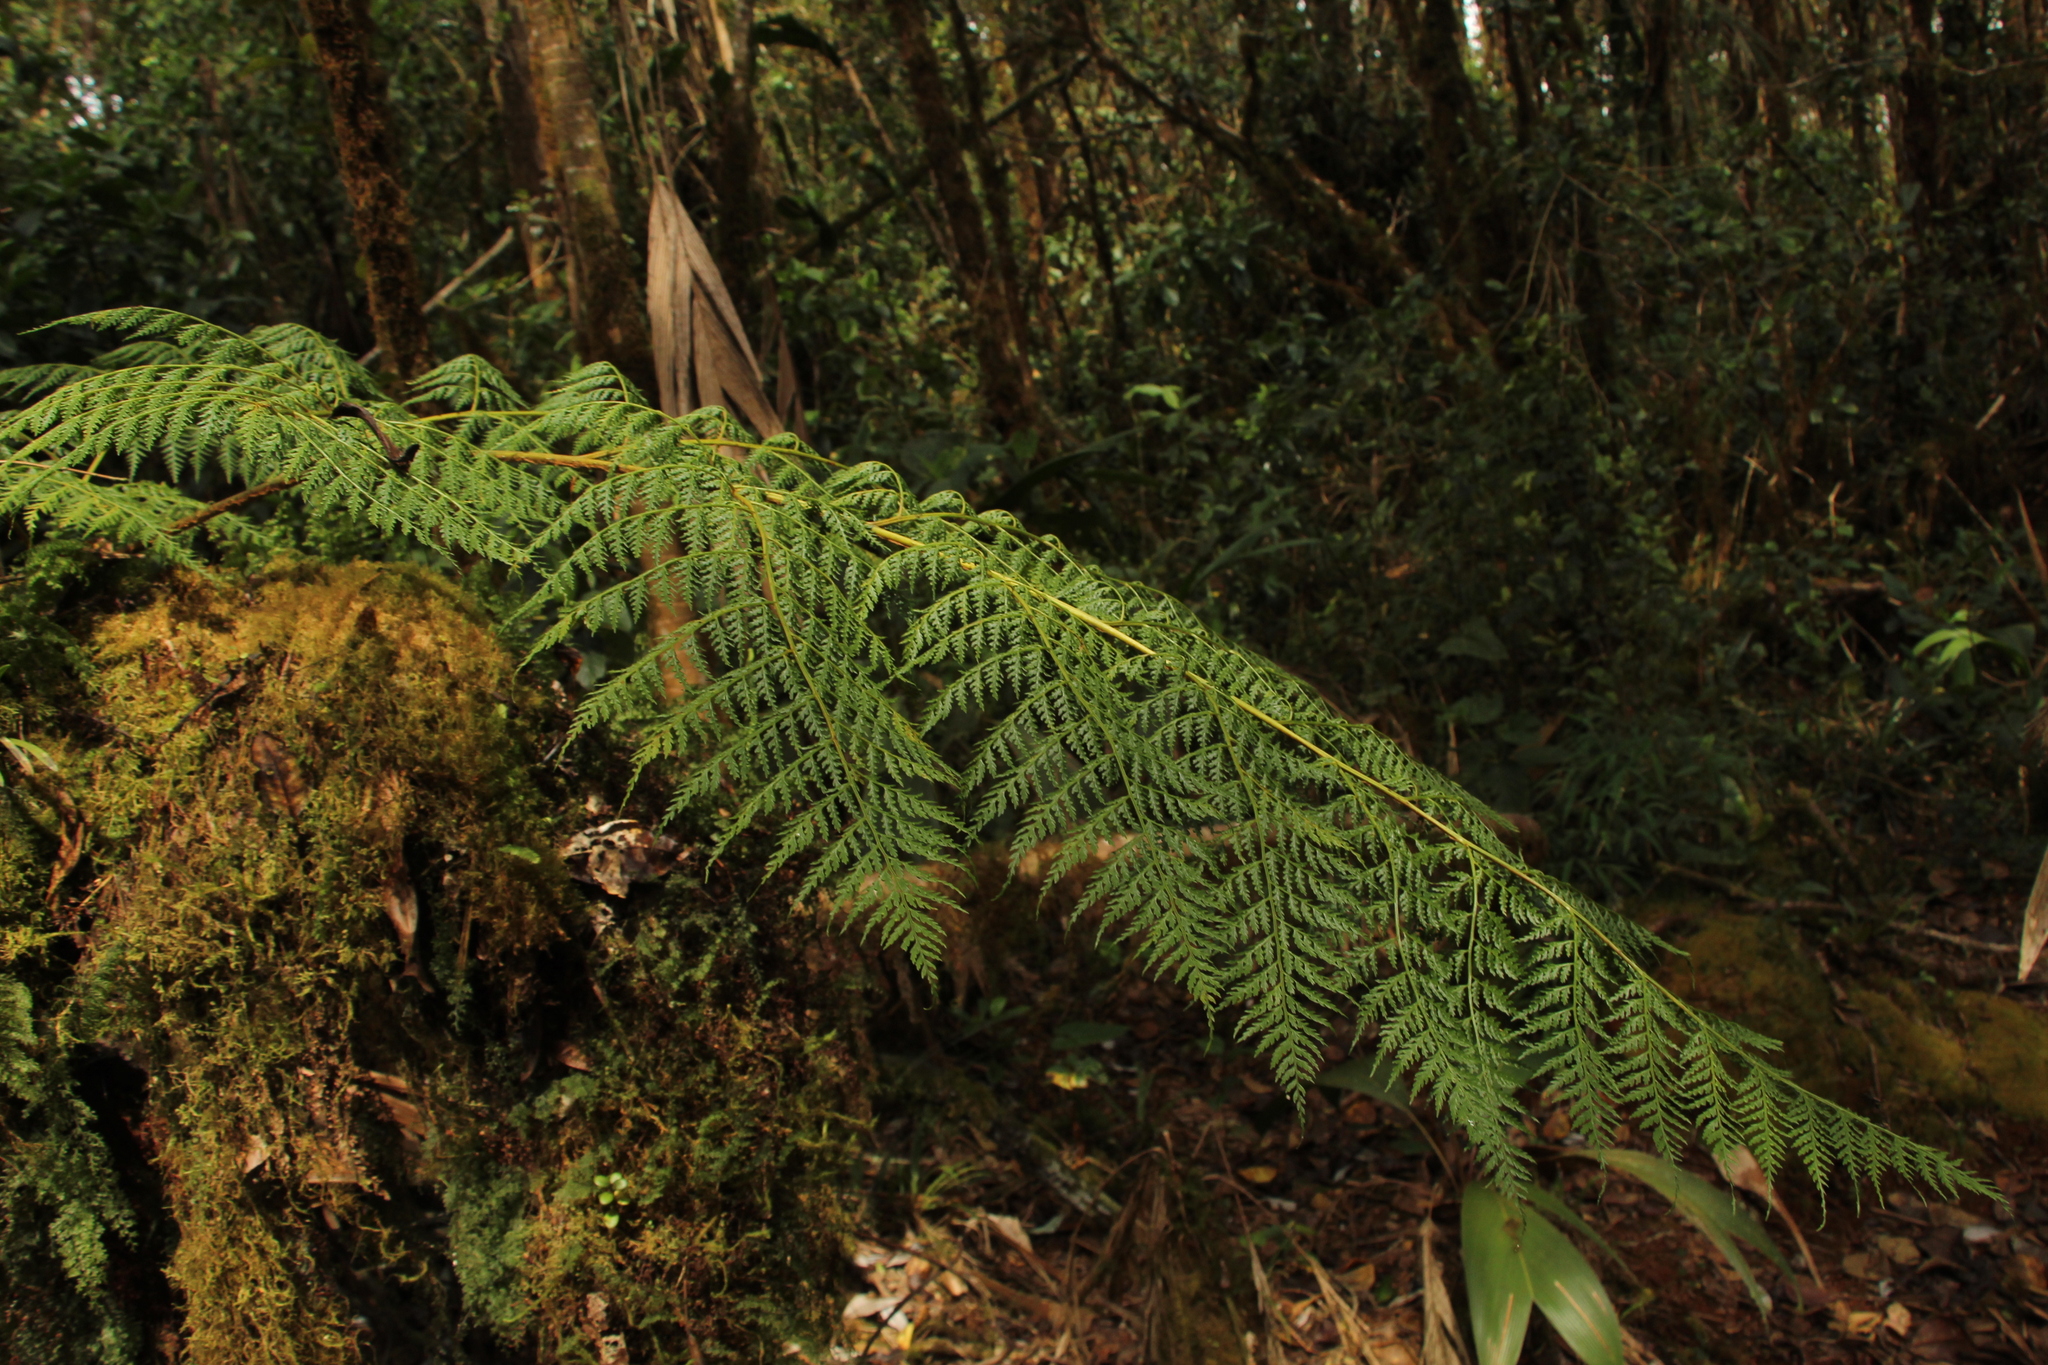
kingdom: Plantae
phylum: Tracheophyta
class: Polypodiopsida
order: Cyatheales
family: Culcitaceae
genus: Culcita
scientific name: Culcita coniifolia
